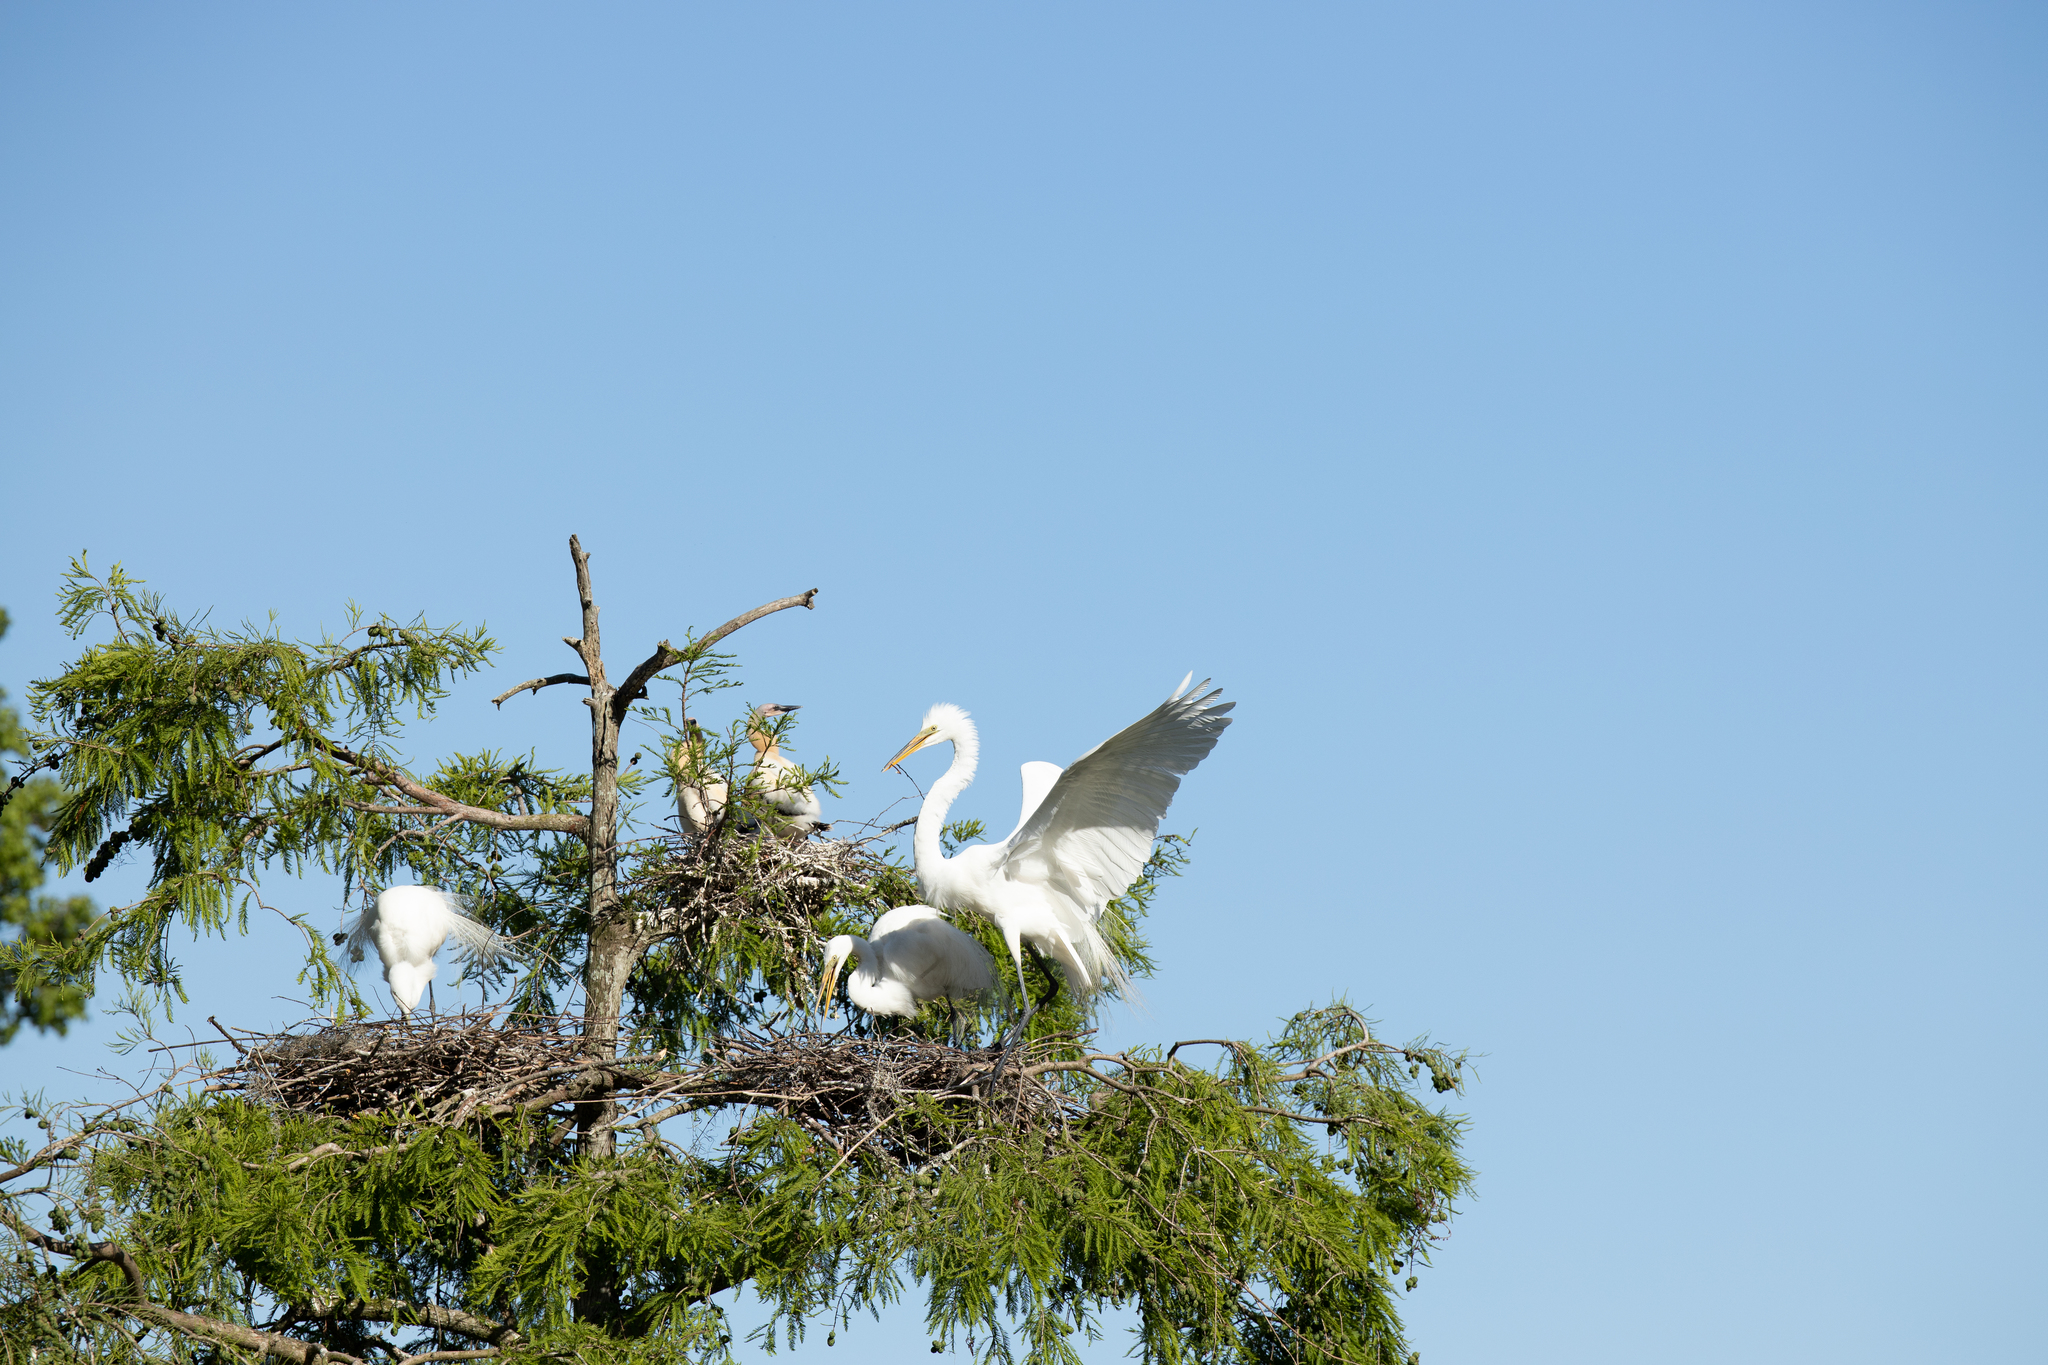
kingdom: Animalia
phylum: Chordata
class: Aves
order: Pelecaniformes
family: Ardeidae
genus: Ardea
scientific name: Ardea alba
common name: Great egret
